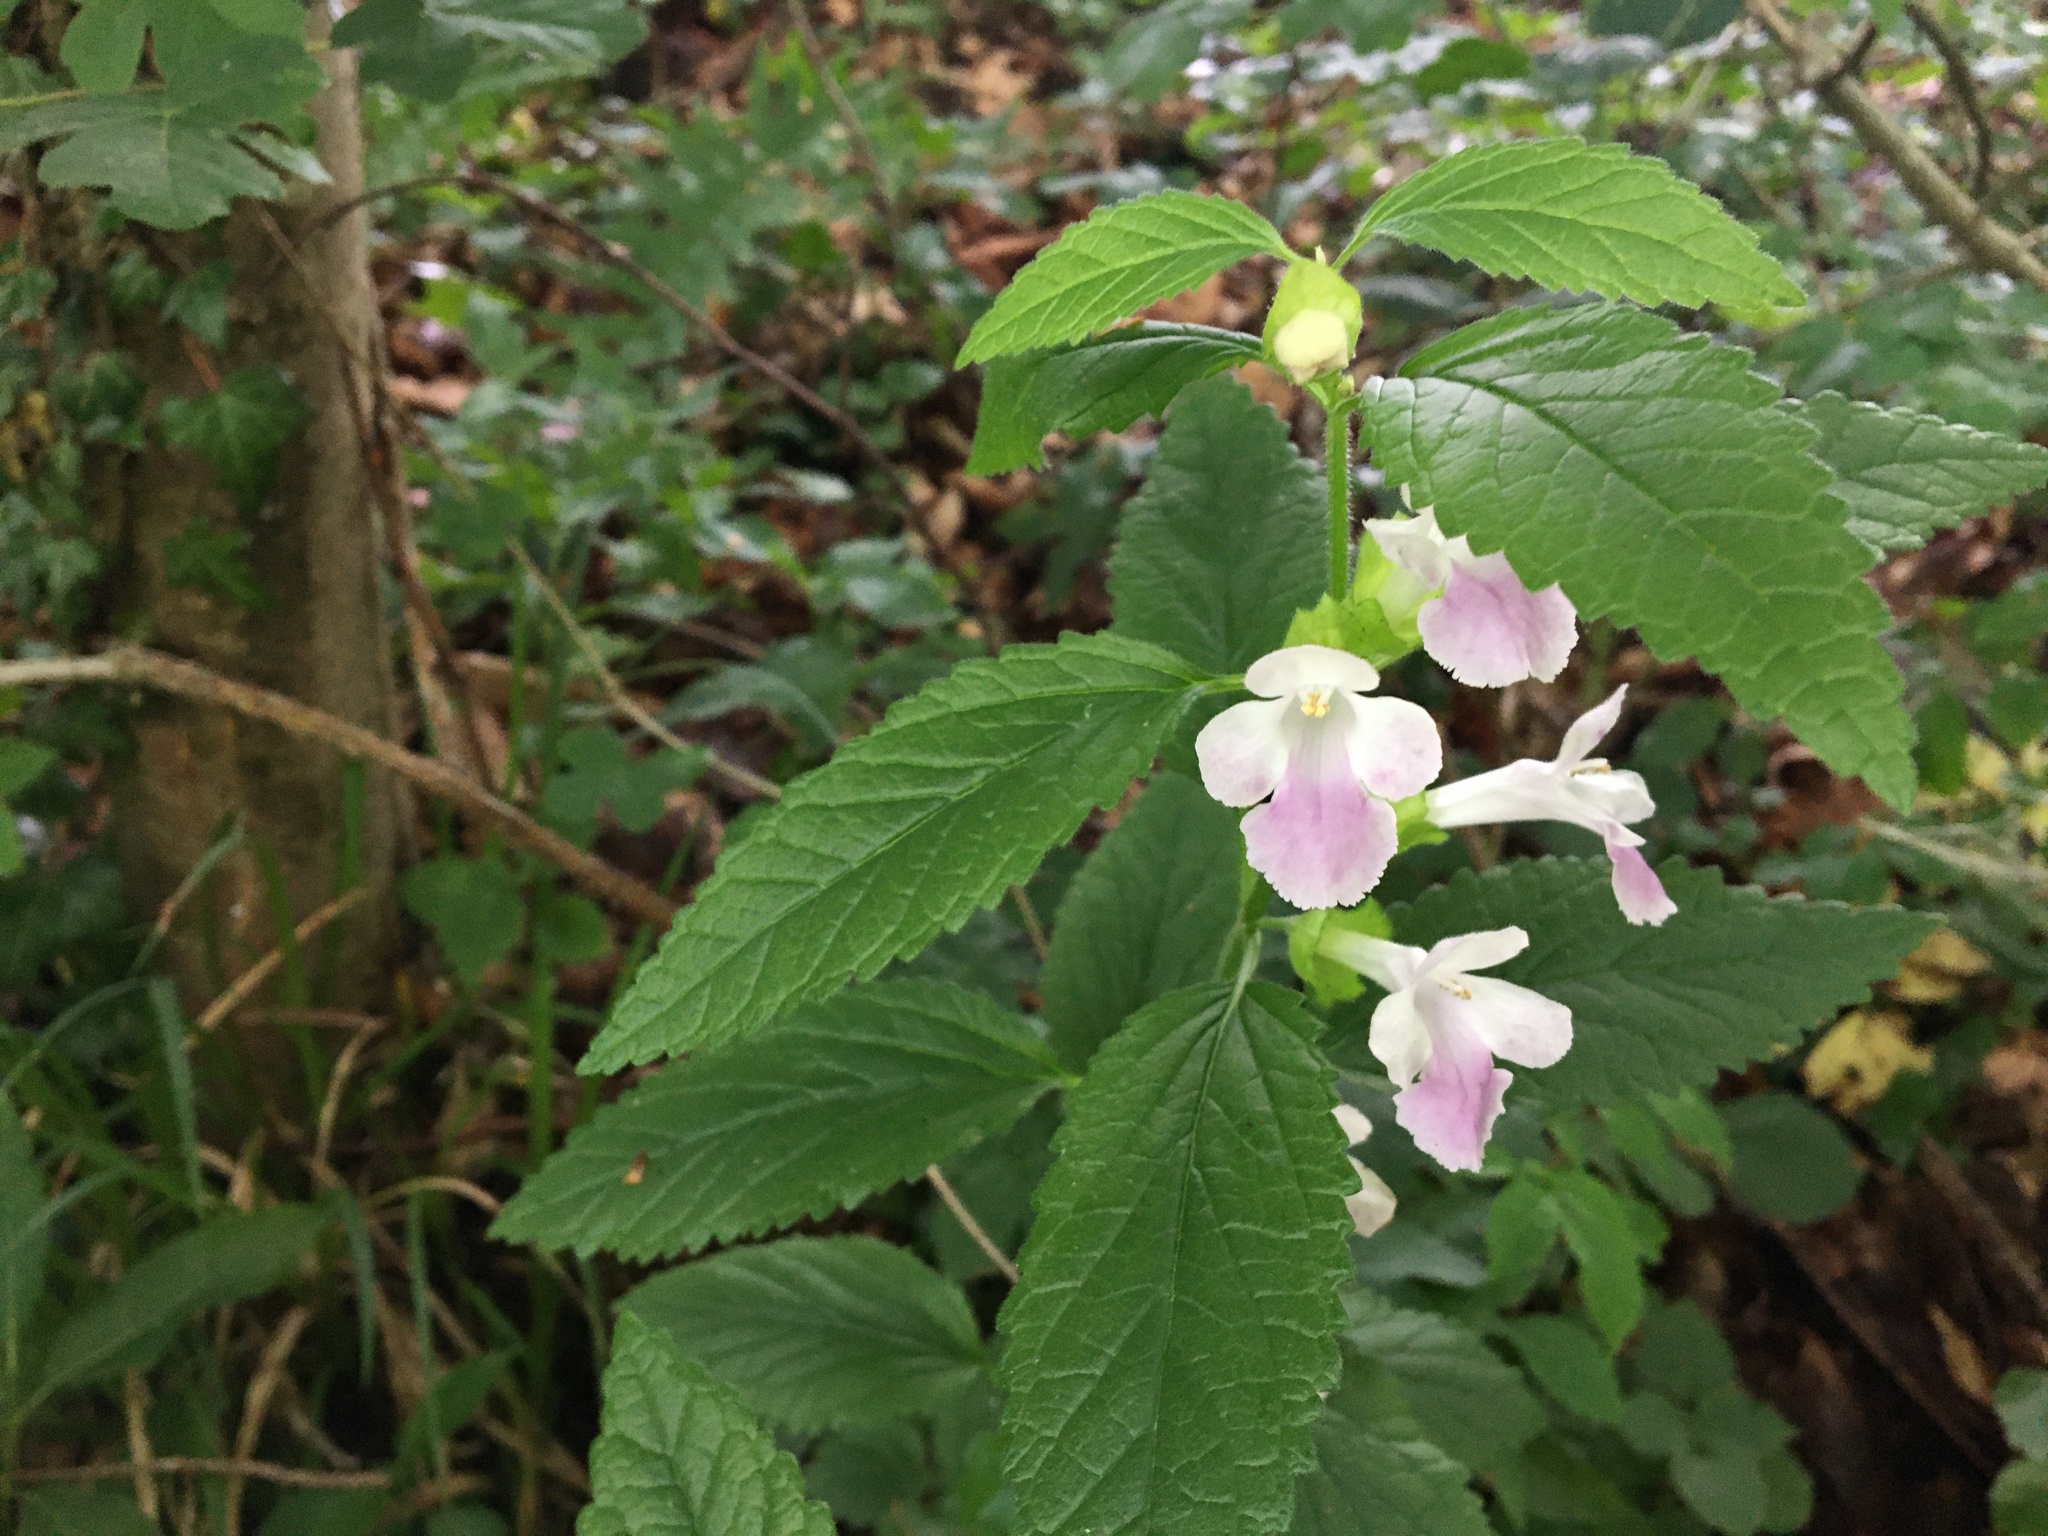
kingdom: Plantae
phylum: Tracheophyta
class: Magnoliopsida
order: Lamiales
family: Lamiaceae
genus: Melittis
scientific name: Melittis melissophyllum
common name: Bastard balm
